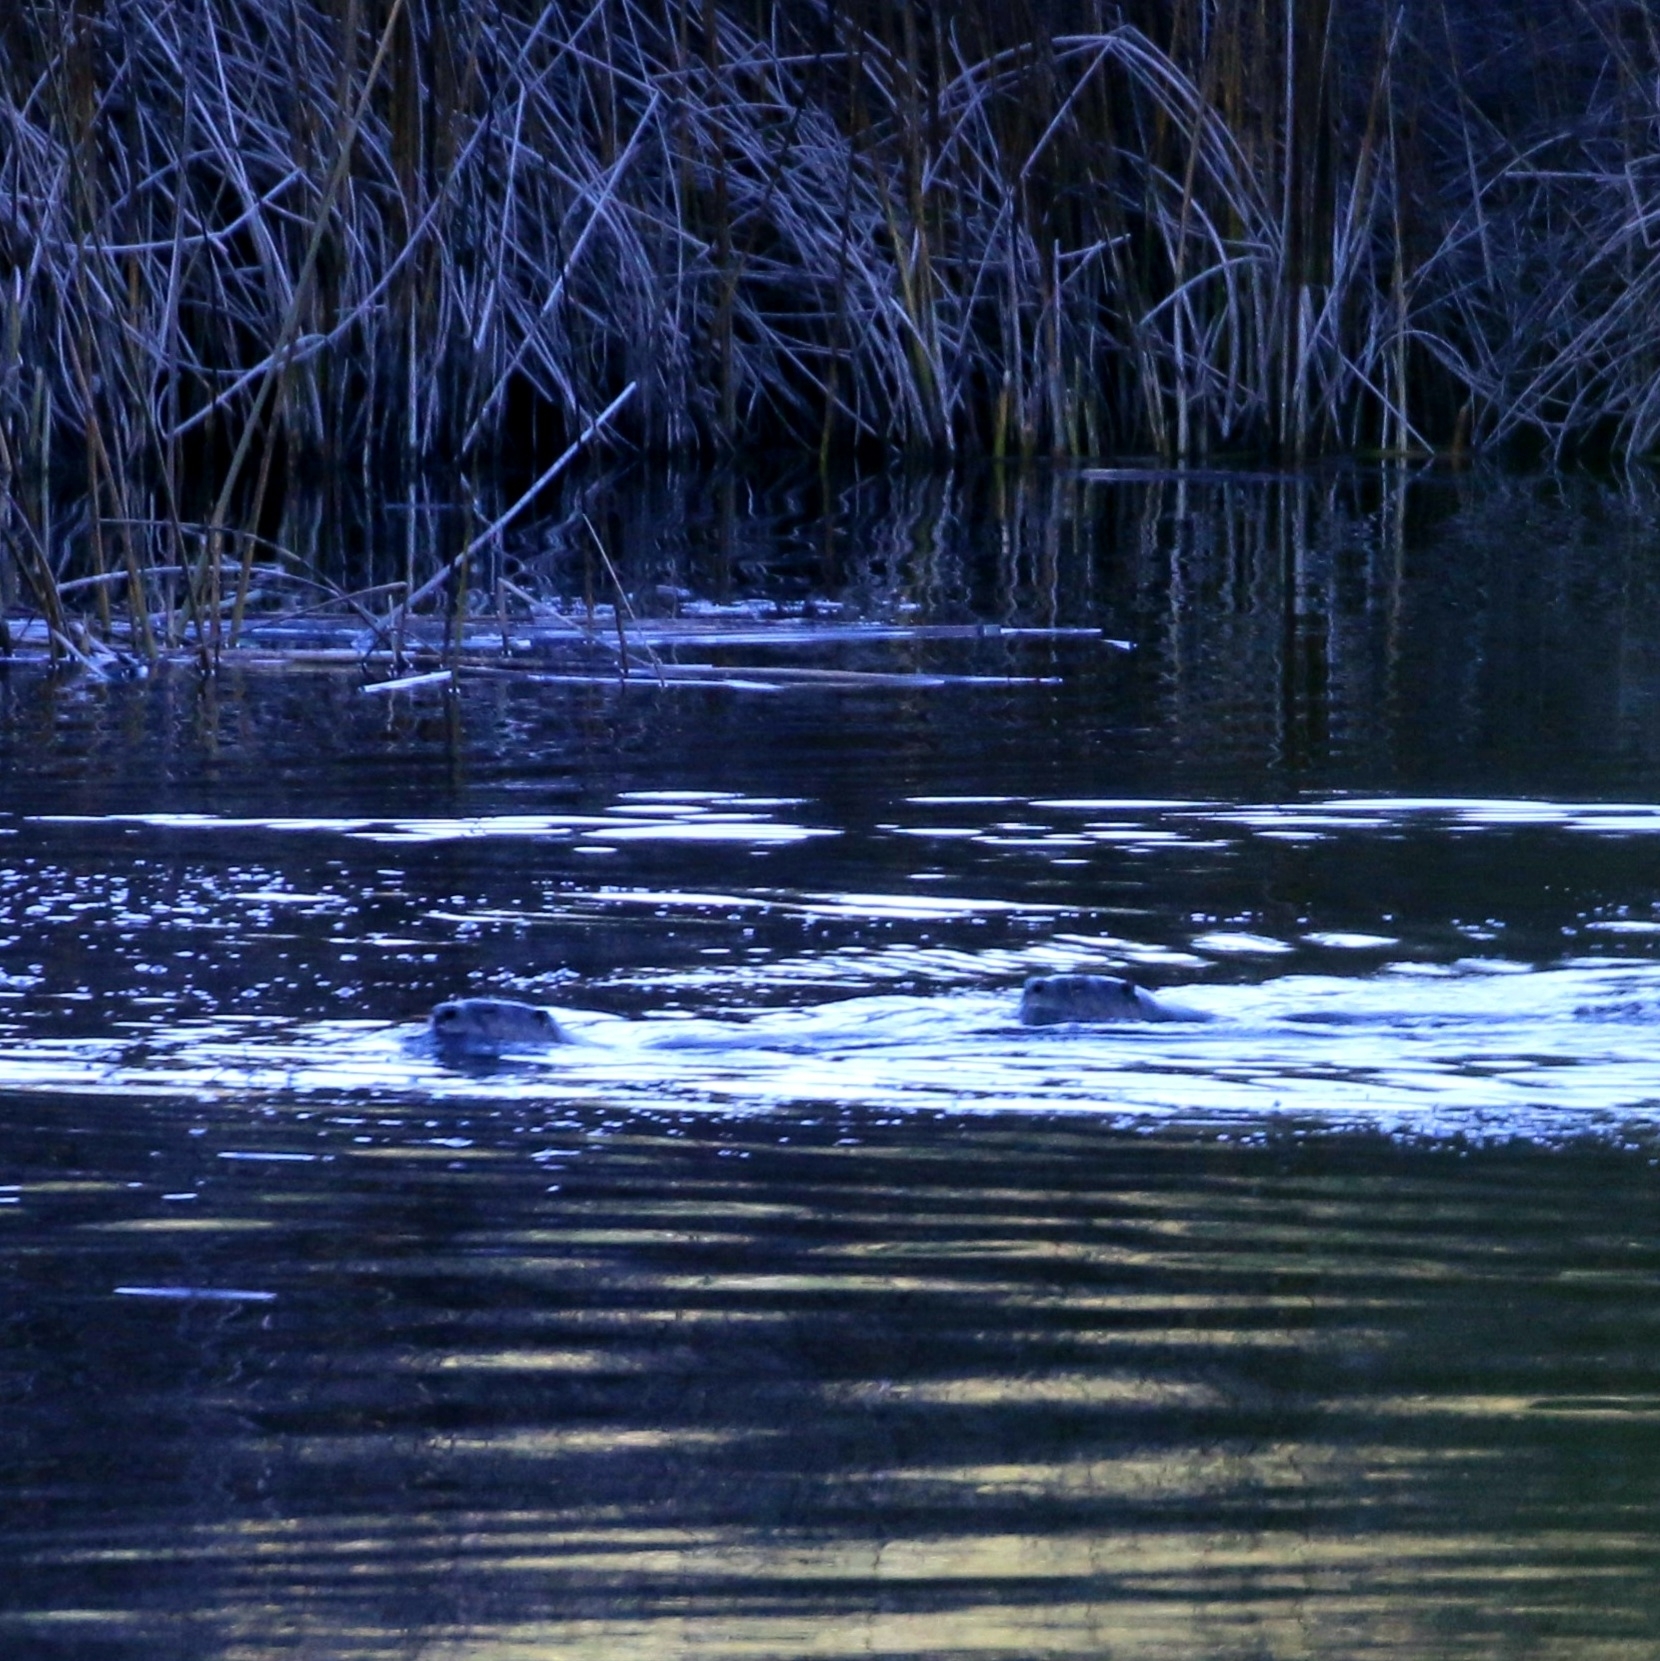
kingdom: Animalia
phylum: Chordata
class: Mammalia
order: Carnivora
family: Mustelidae
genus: Lontra
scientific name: Lontra canadensis
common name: North american river otter
